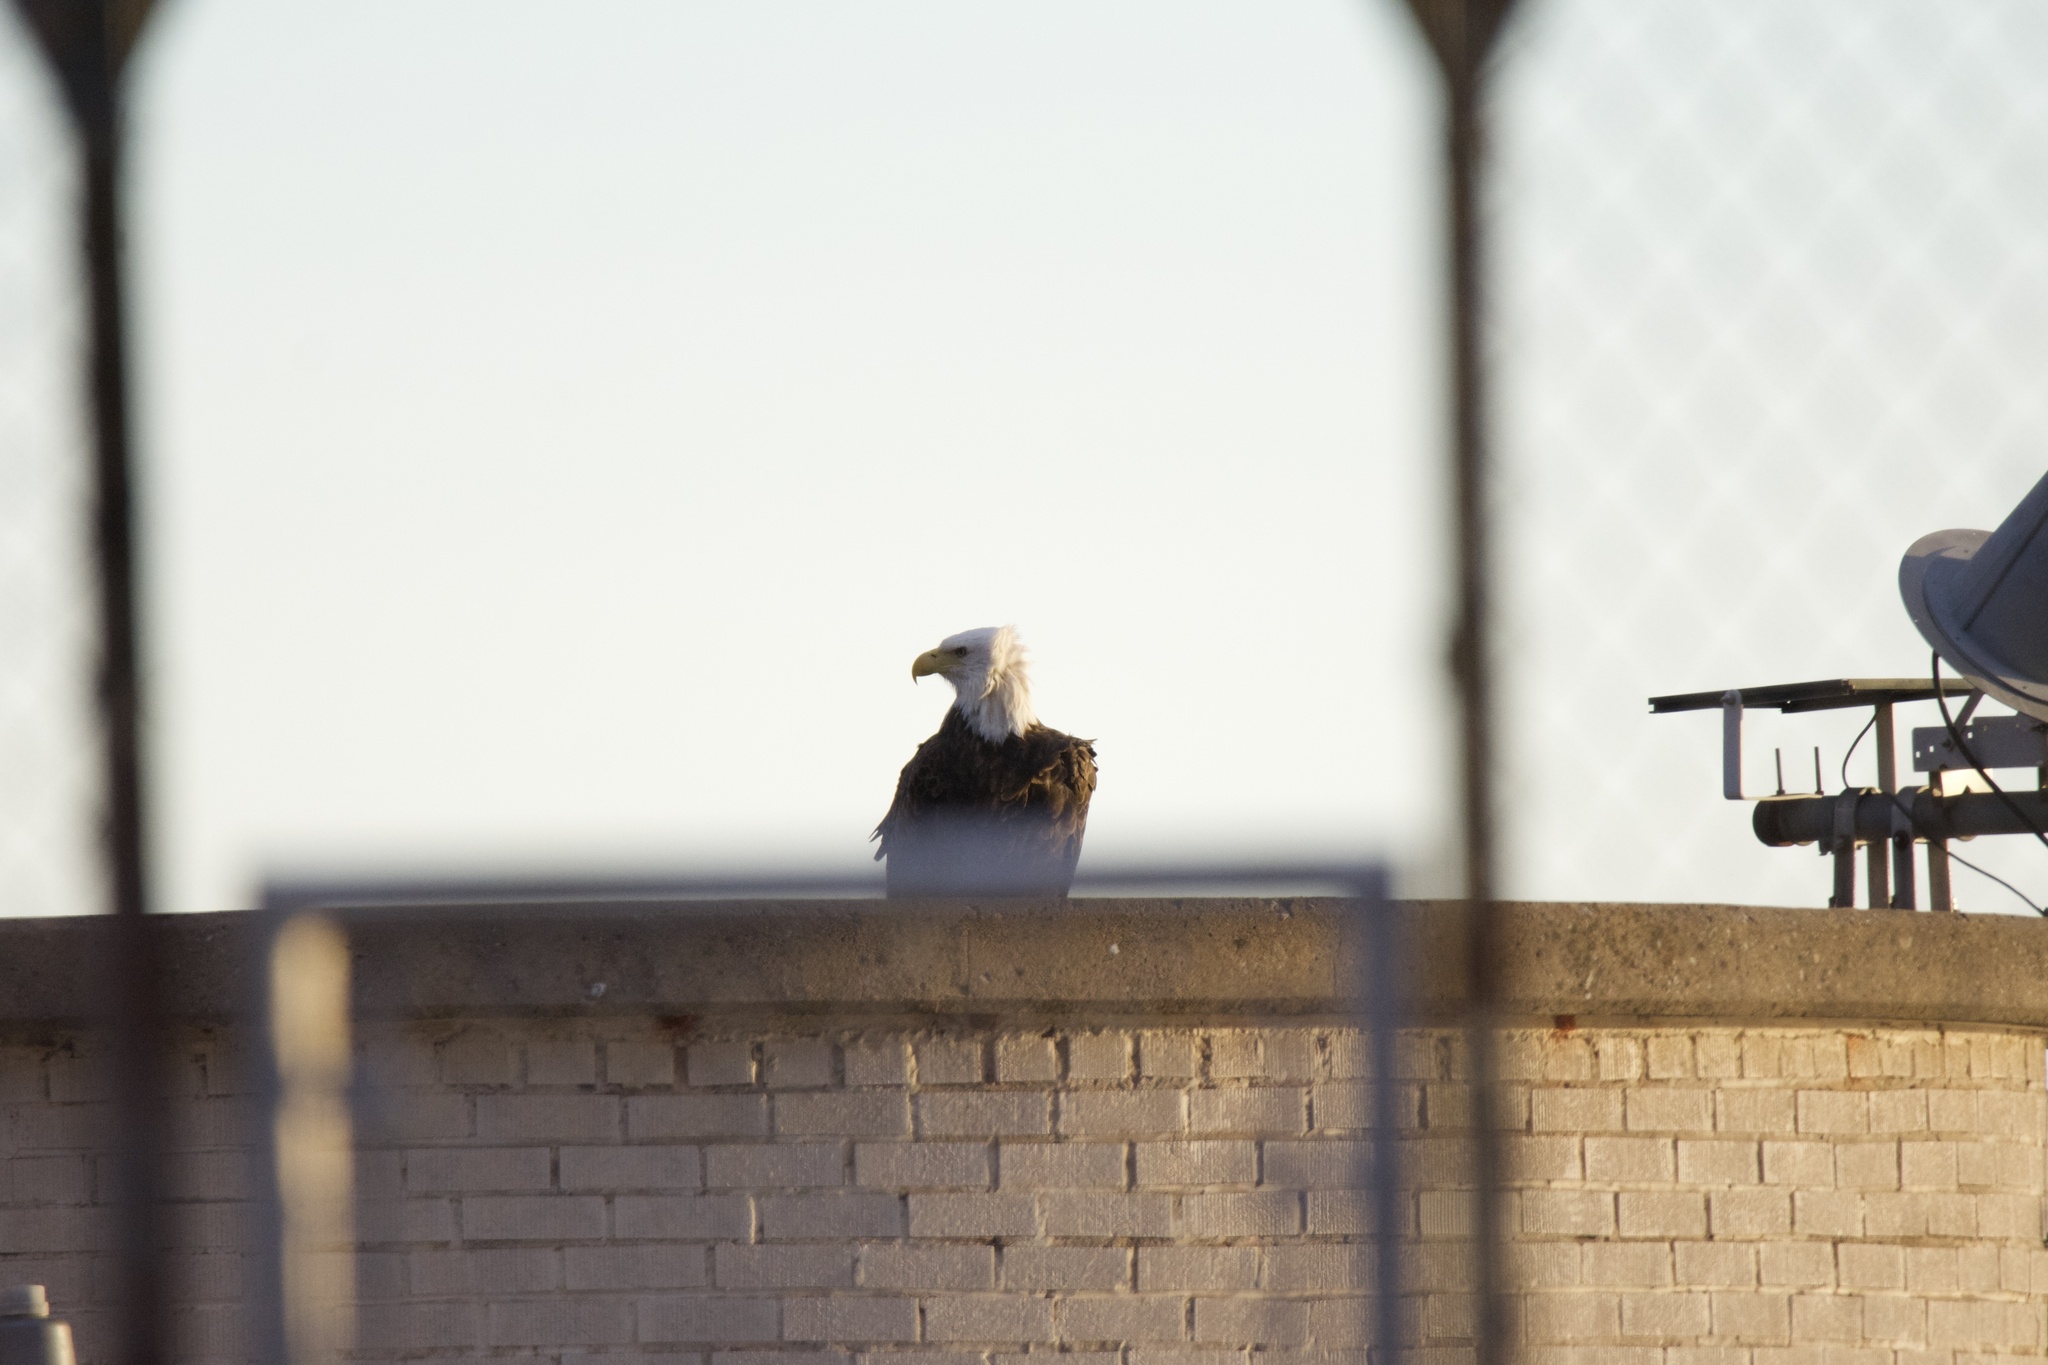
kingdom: Animalia
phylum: Chordata
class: Aves
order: Accipitriformes
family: Accipitridae
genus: Haliaeetus
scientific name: Haliaeetus leucocephalus
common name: Bald eagle
